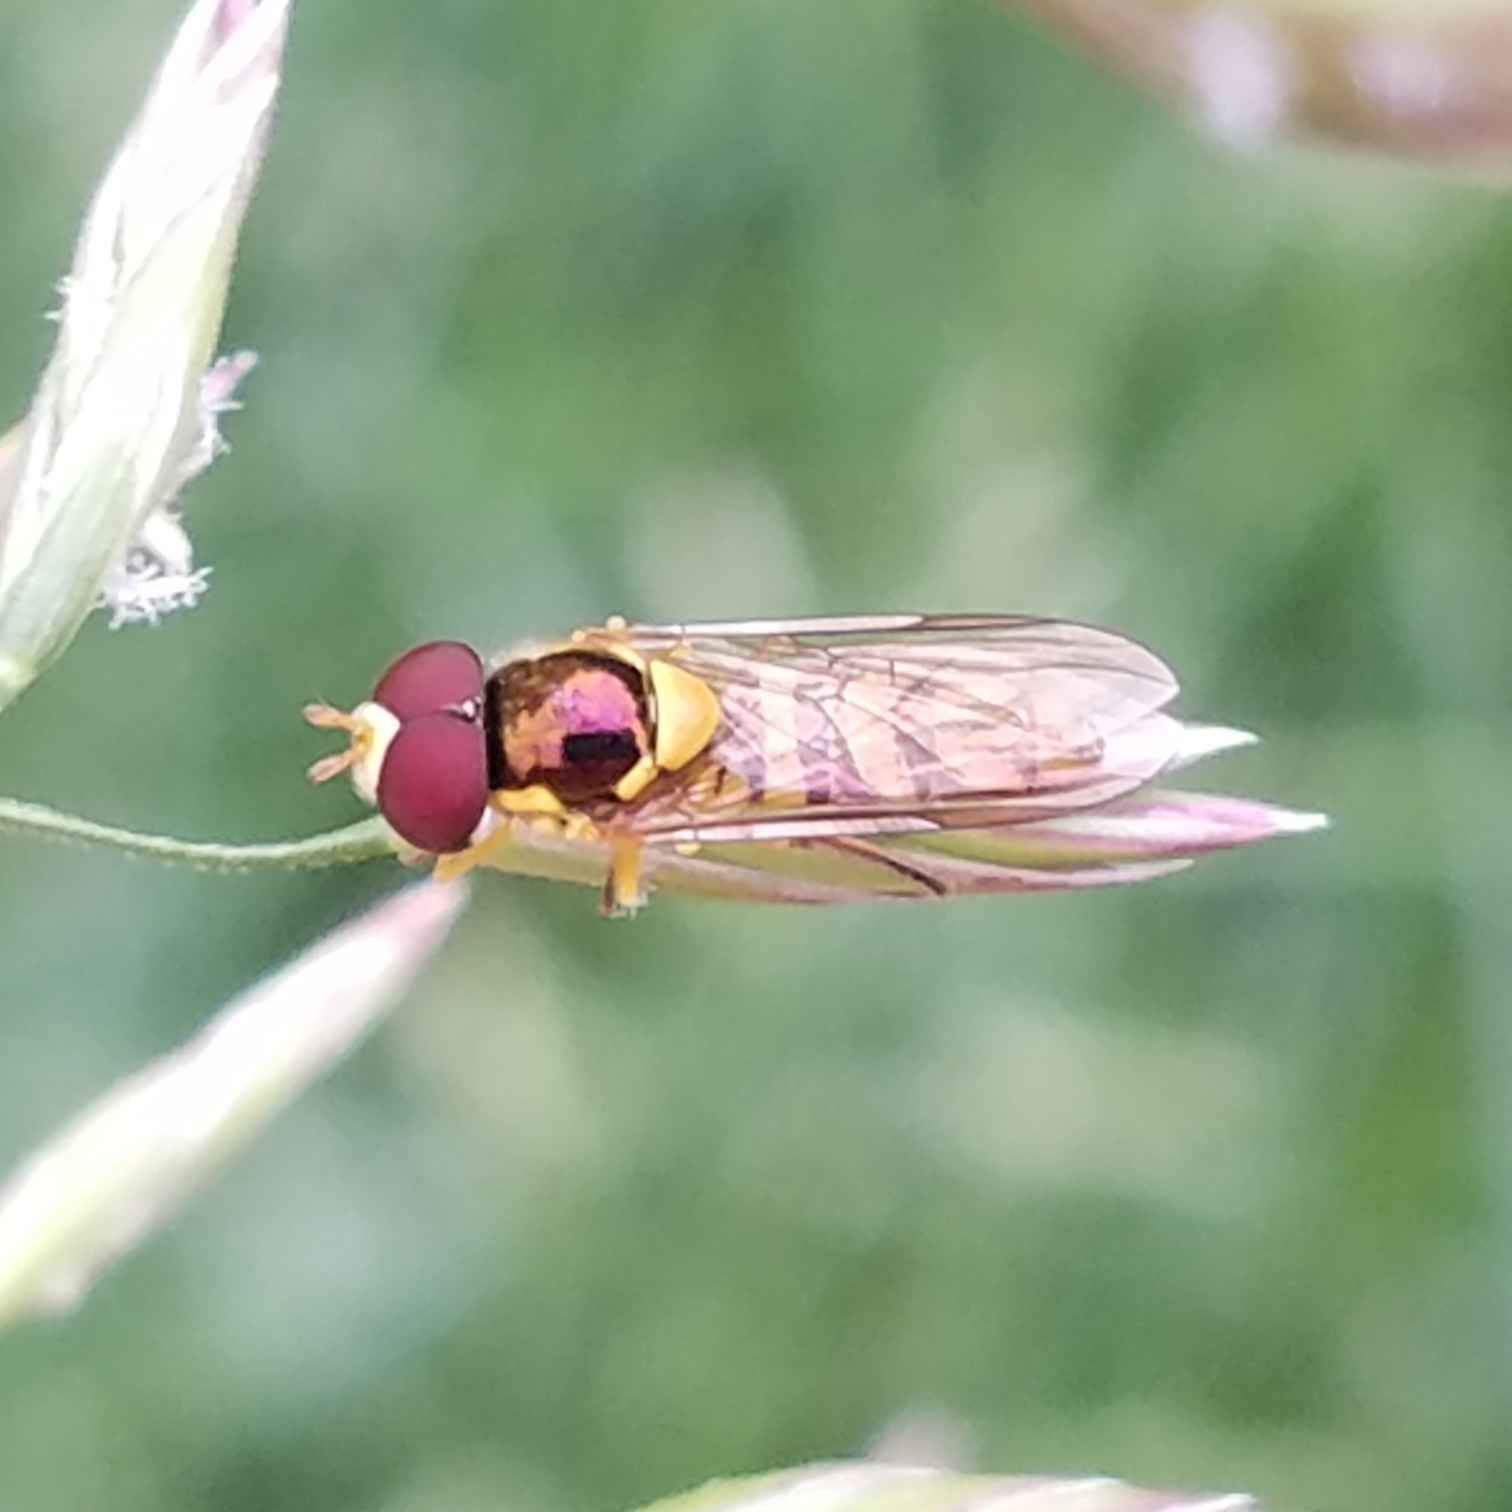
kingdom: Animalia
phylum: Arthropoda
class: Insecta
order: Diptera
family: Syrphidae
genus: Allograpta
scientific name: Allograpta obliqua
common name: Common oblique syrphid
